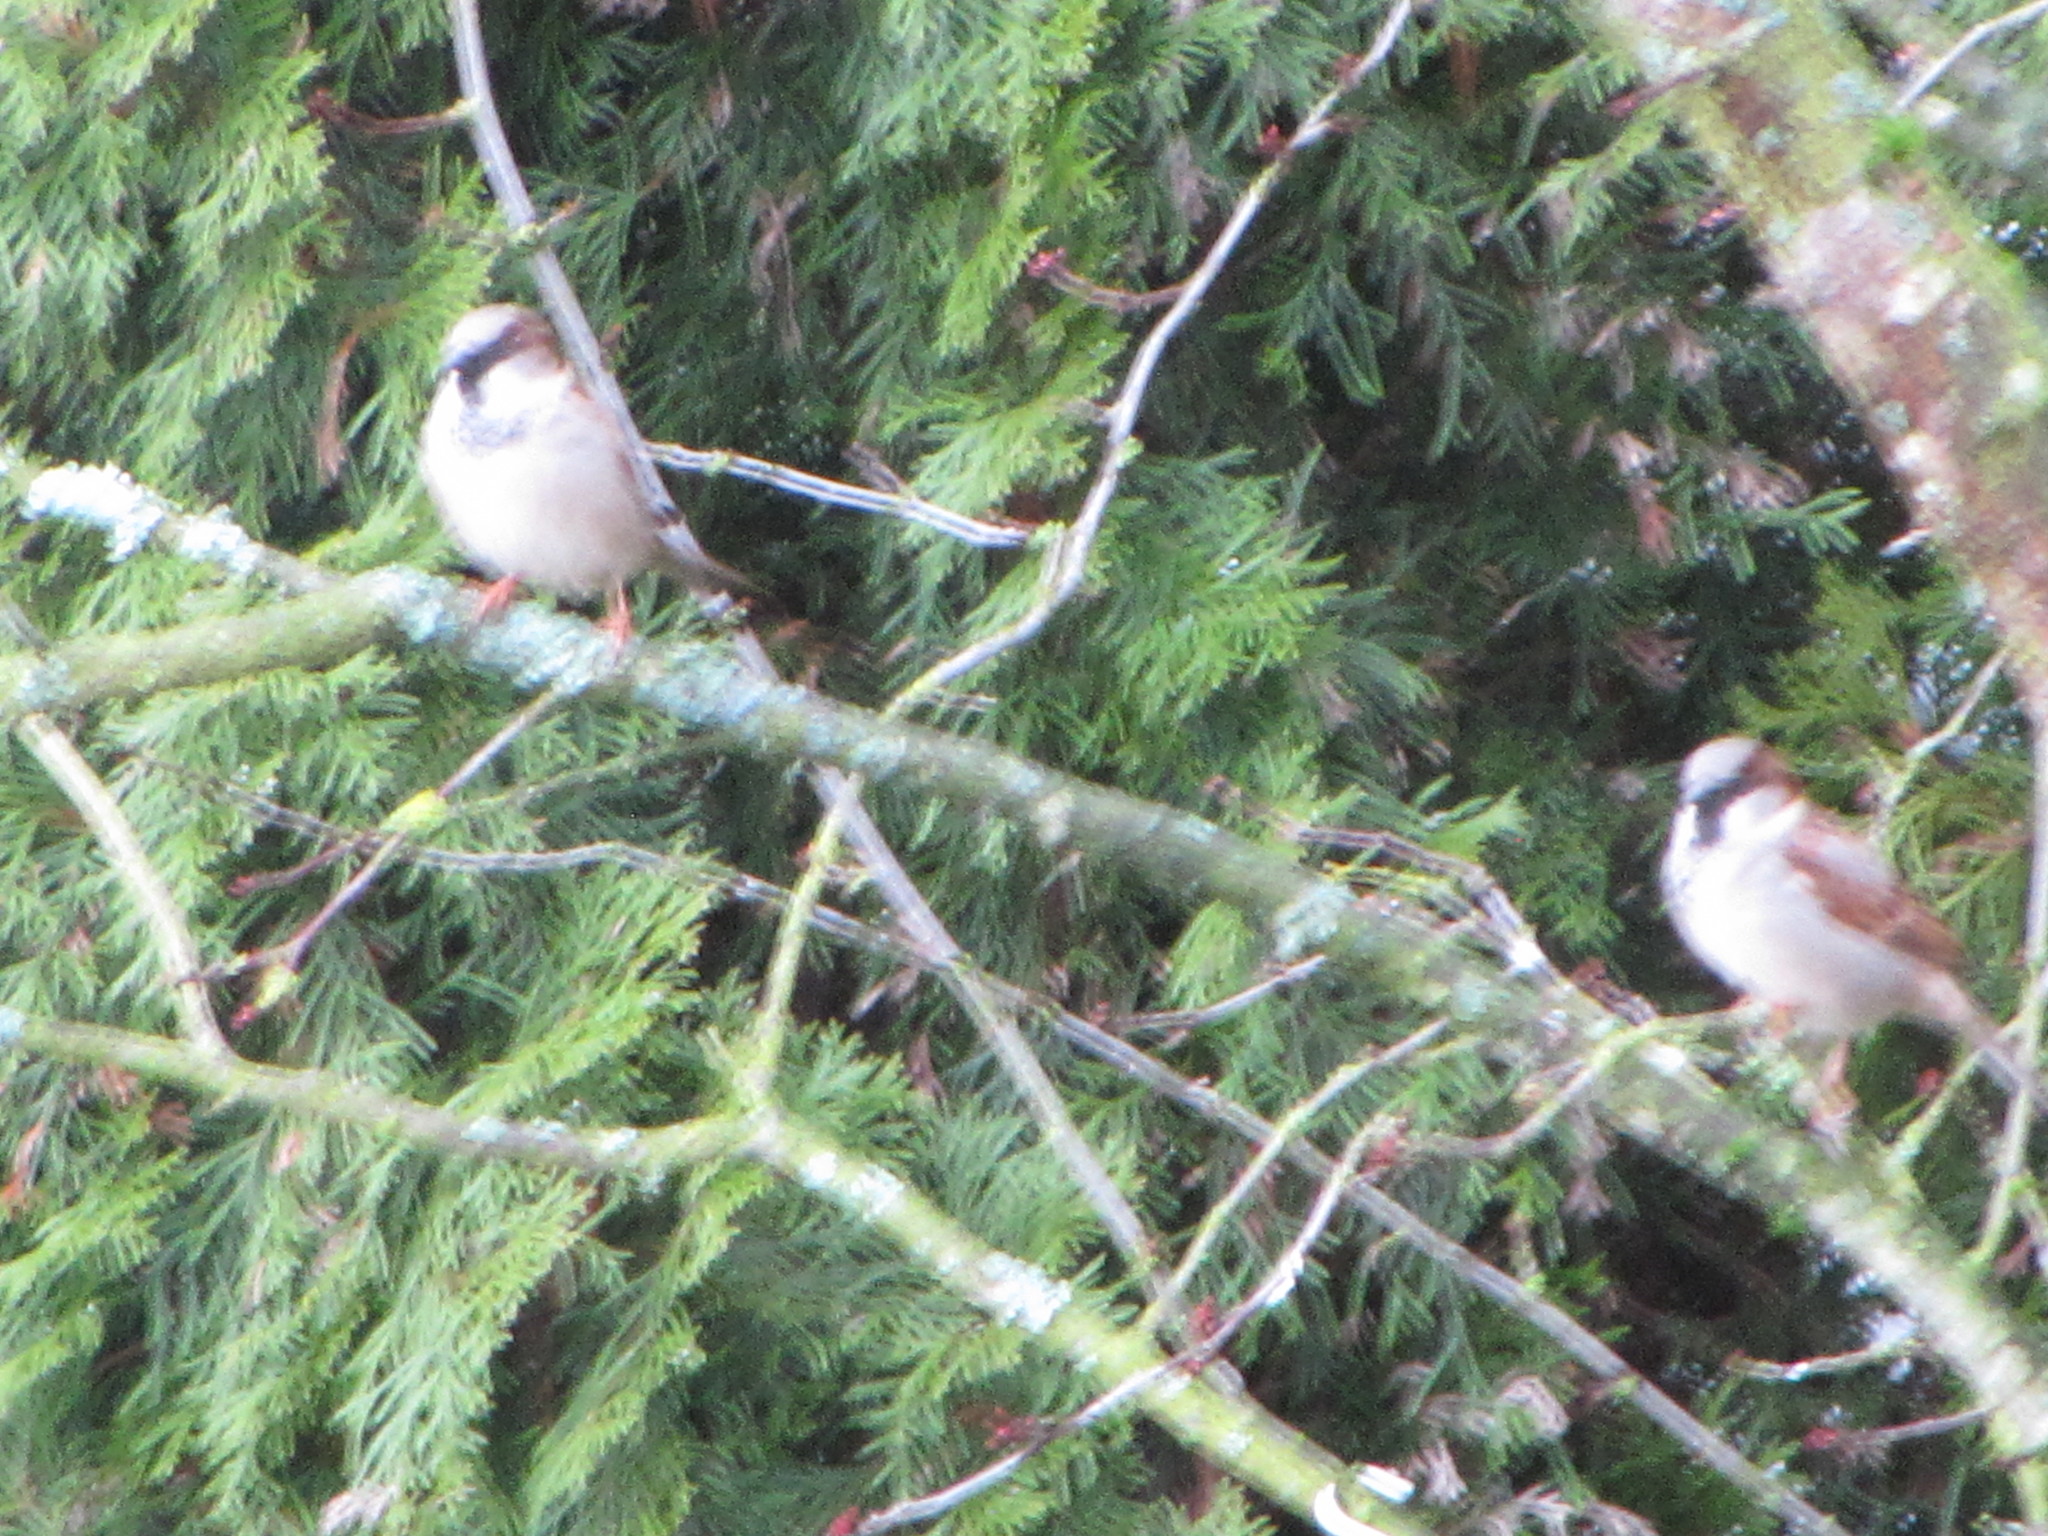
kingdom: Animalia
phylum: Chordata
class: Aves
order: Passeriformes
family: Passeridae
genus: Passer
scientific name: Passer domesticus
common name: House sparrow
